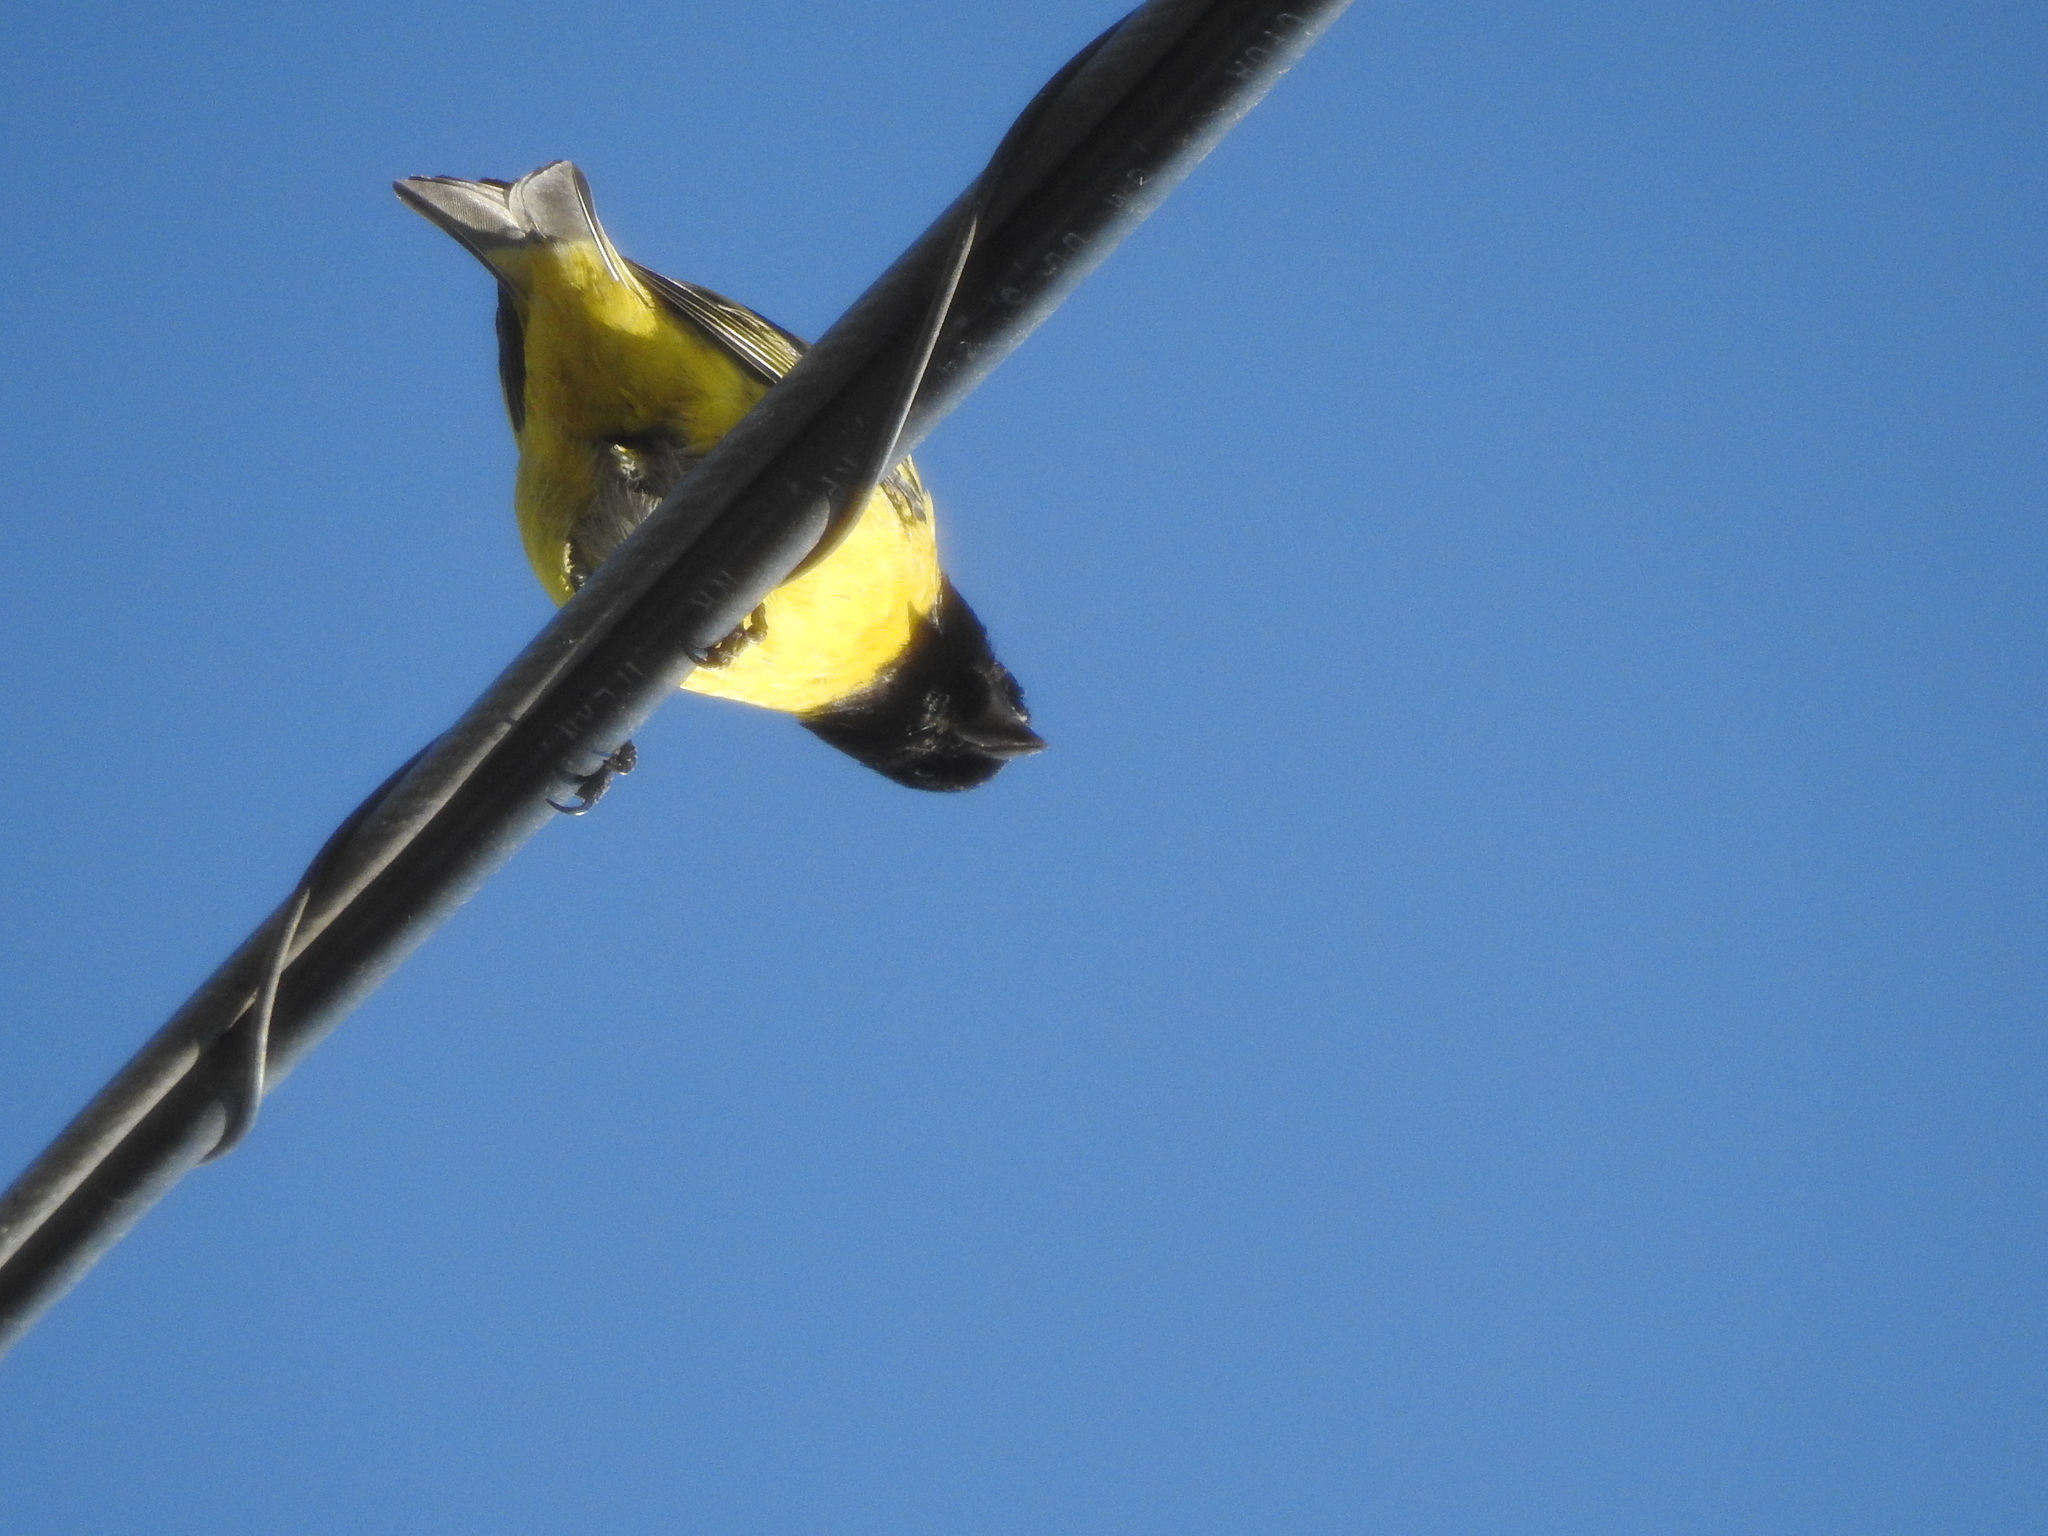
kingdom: Animalia
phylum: Chordata
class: Aves
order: Passeriformes
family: Fringillidae
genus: Spinus
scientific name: Spinus magellanicus
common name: Hooded siskin
